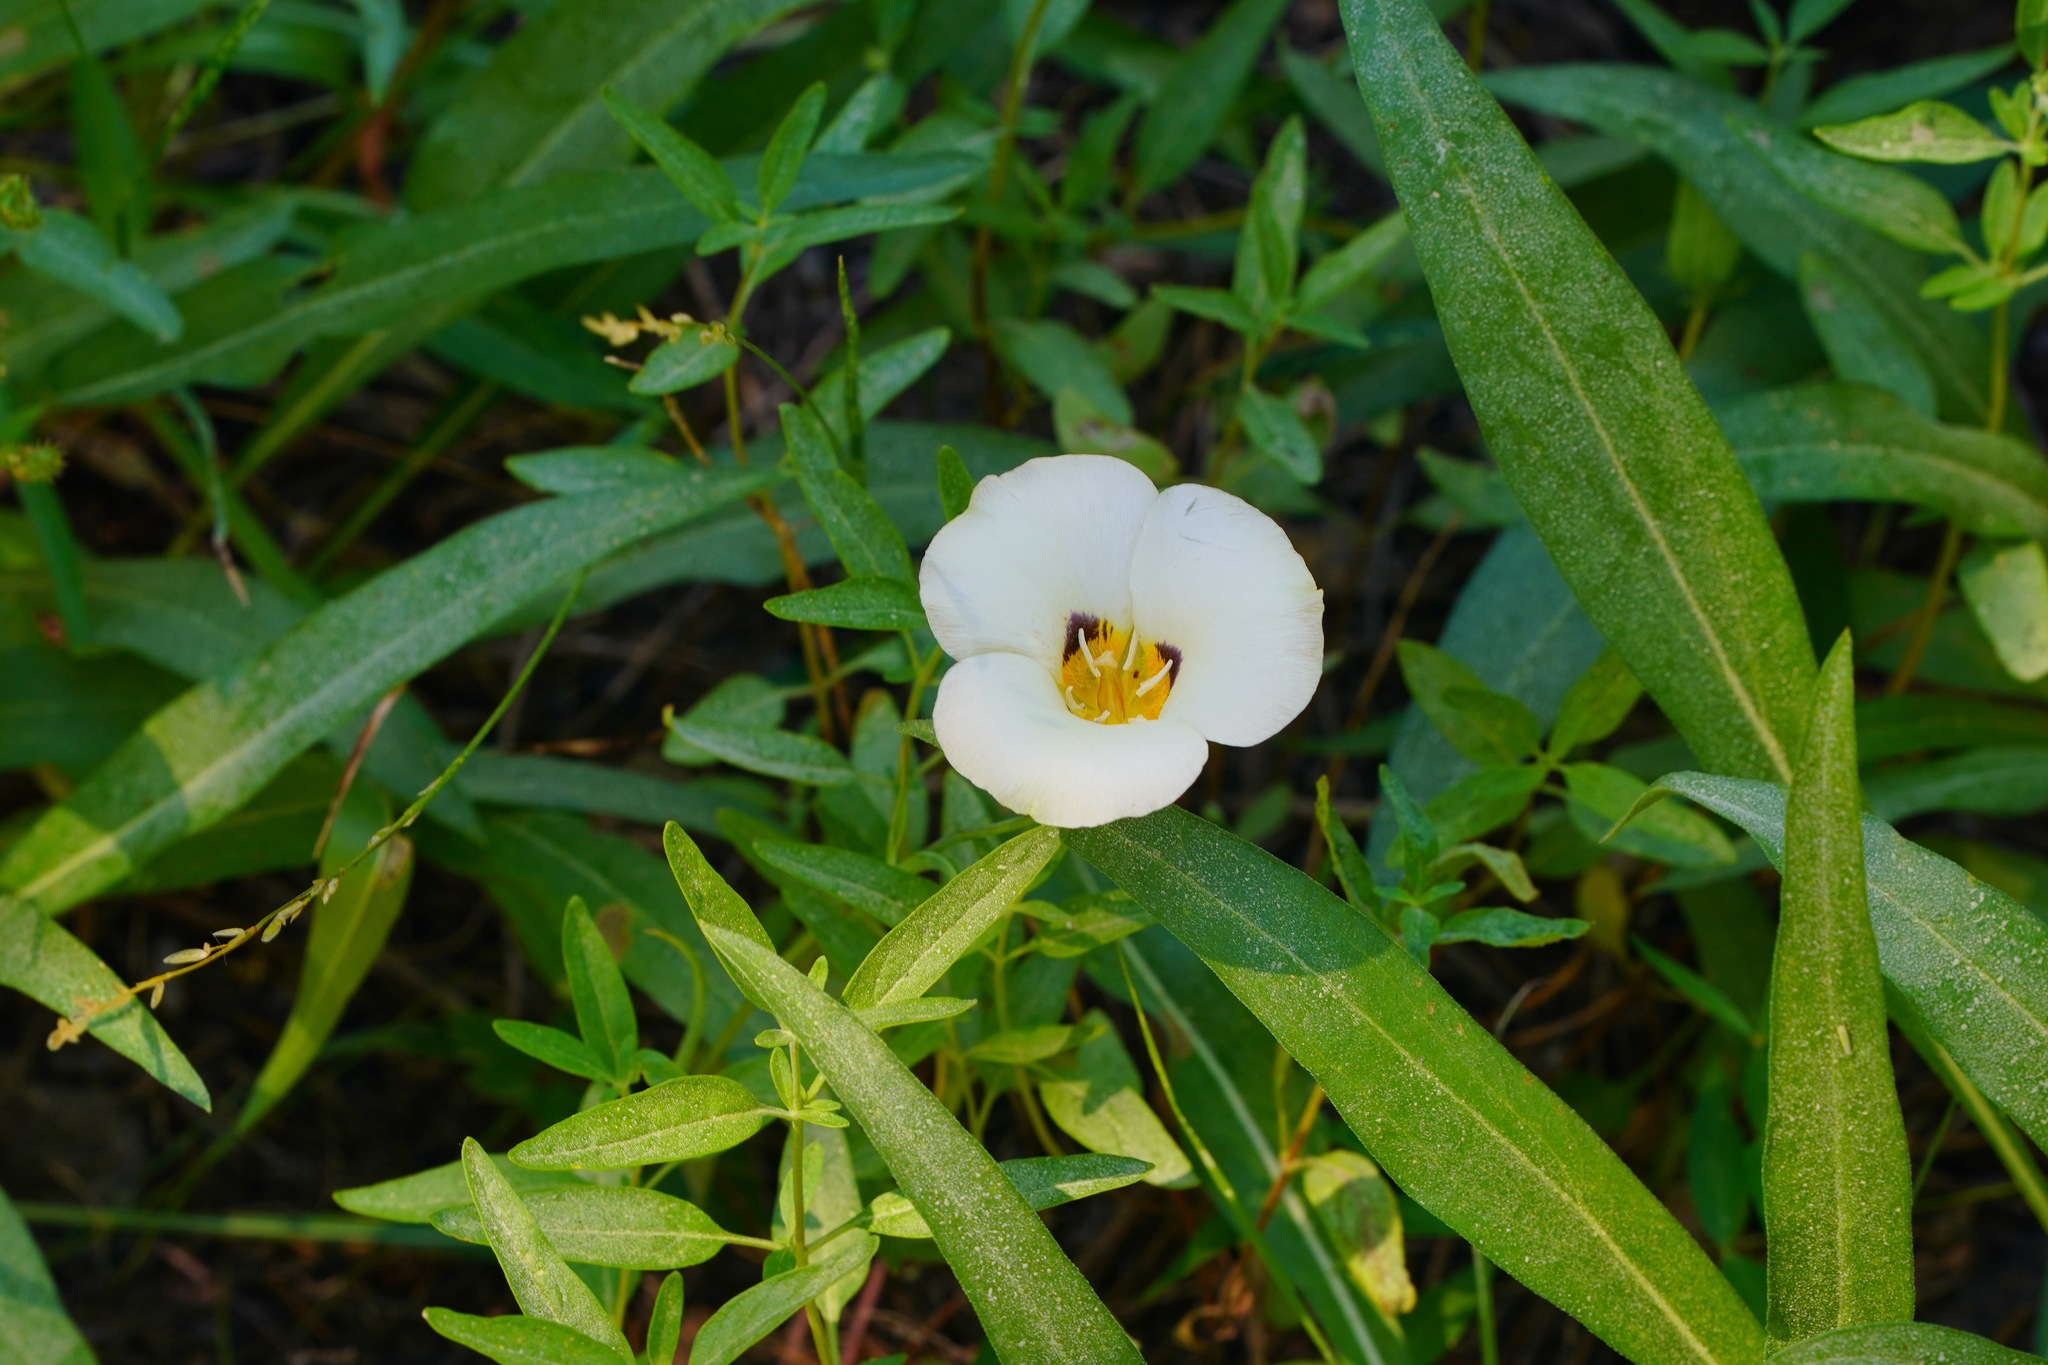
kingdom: Plantae
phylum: Tracheophyta
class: Liliopsida
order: Liliales
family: Liliaceae
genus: Calochortus
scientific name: Calochortus leichtlinii
